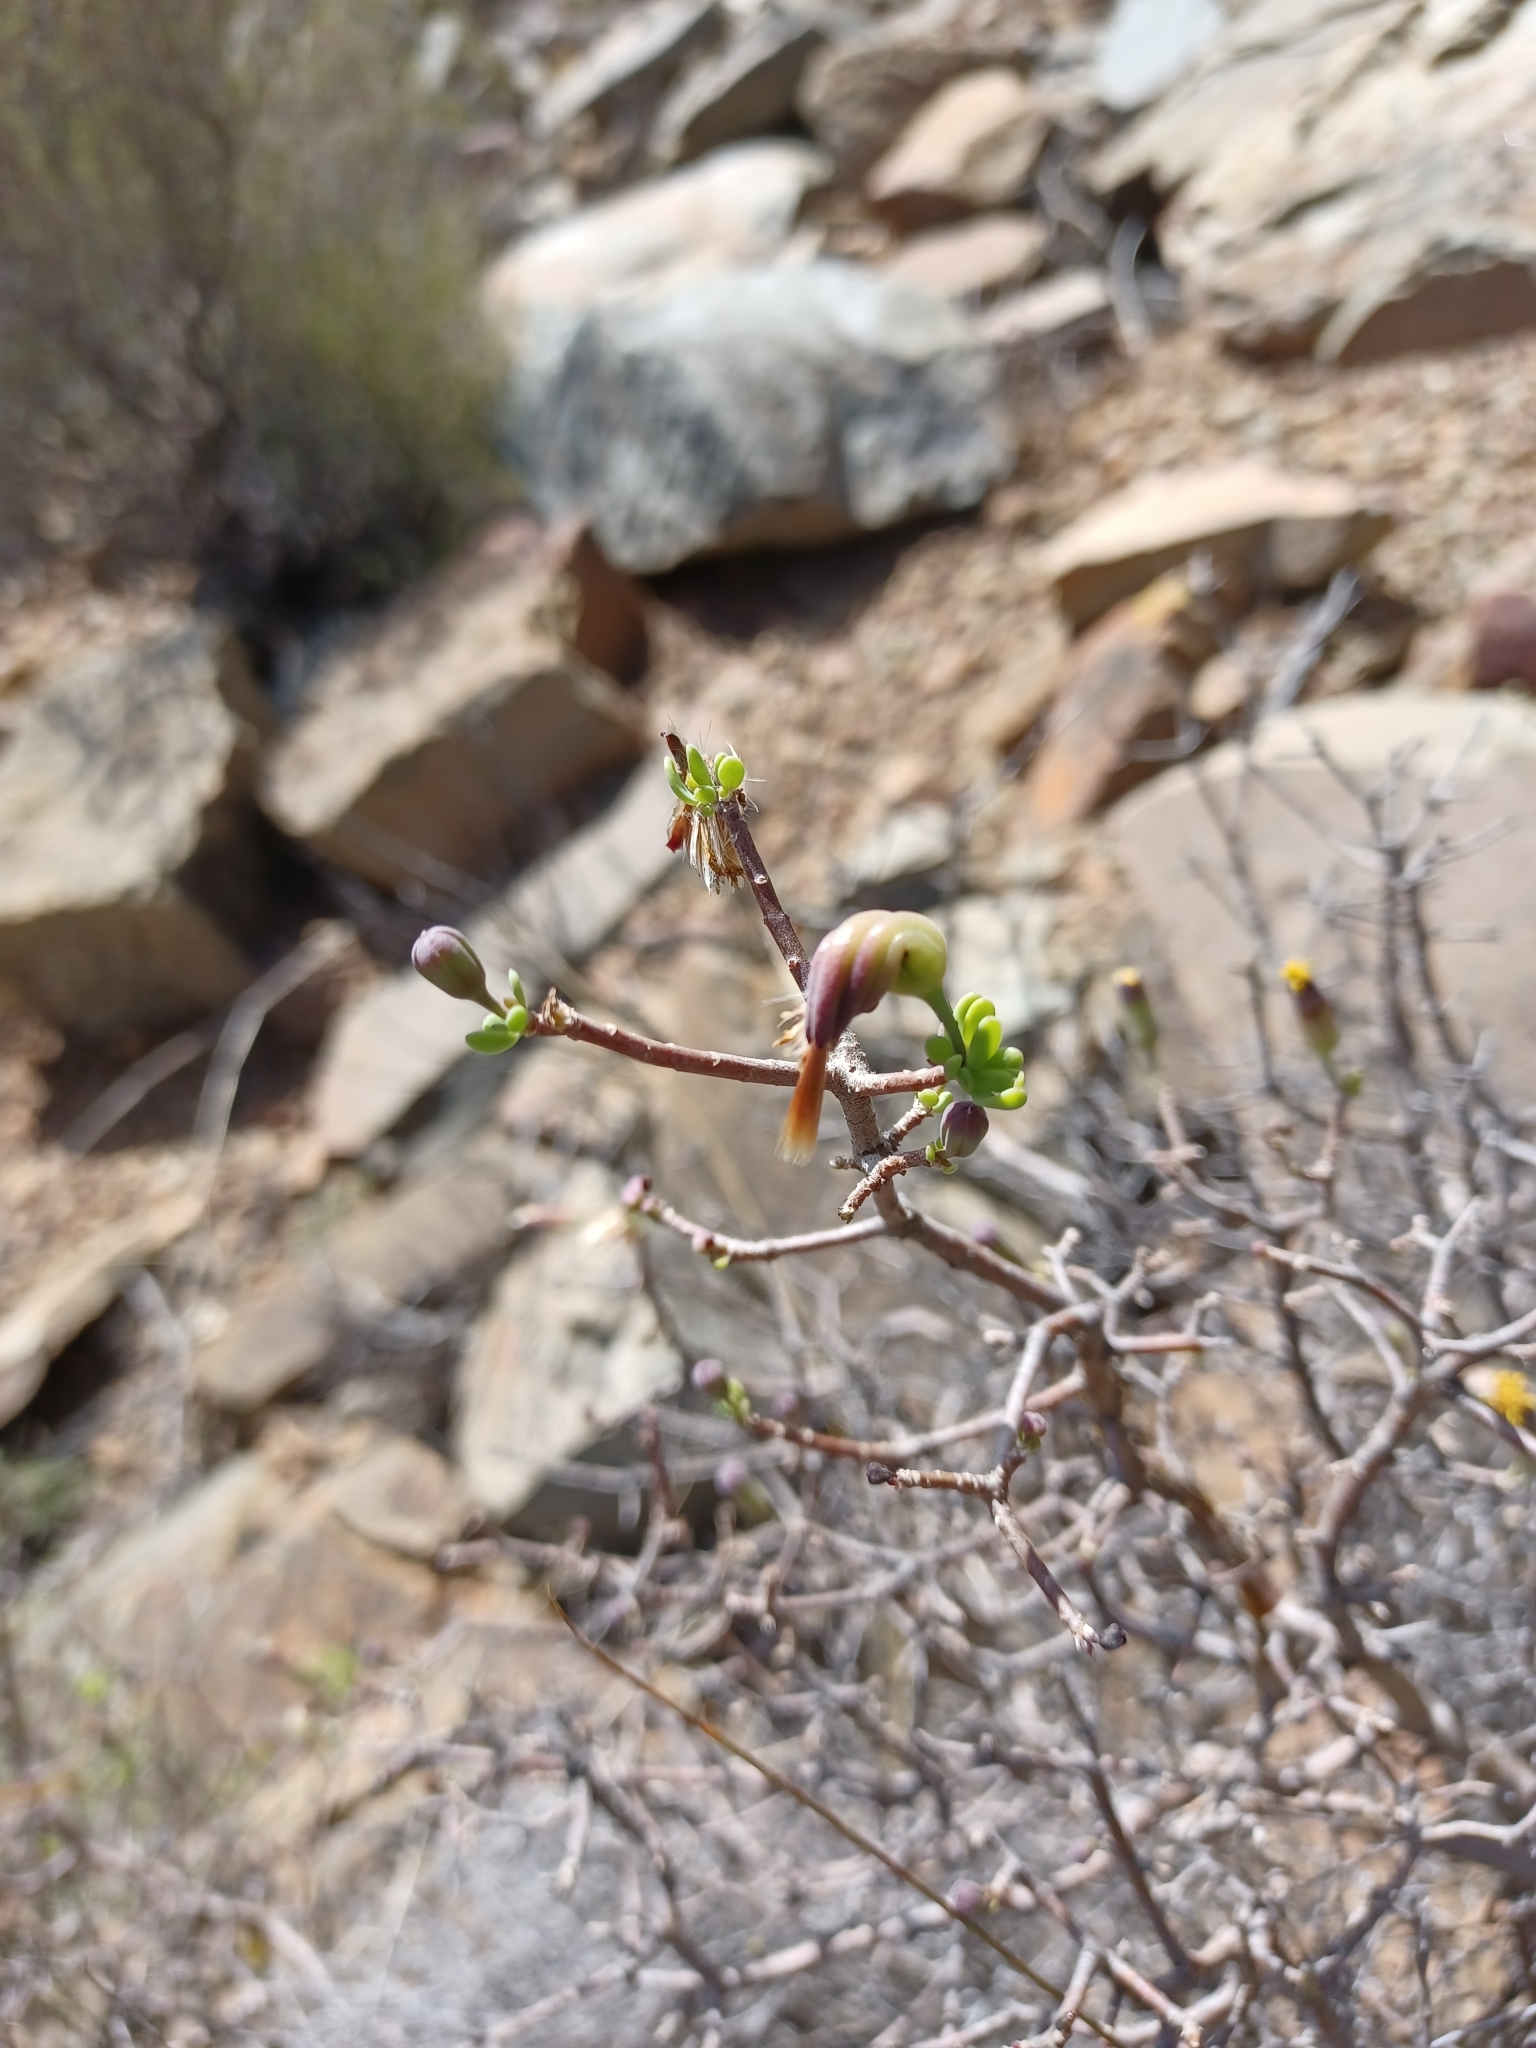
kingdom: Plantae
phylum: Tracheophyta
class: Magnoliopsida
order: Asterales
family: Asteraceae
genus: Othonna
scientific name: Othonna arbuscula
